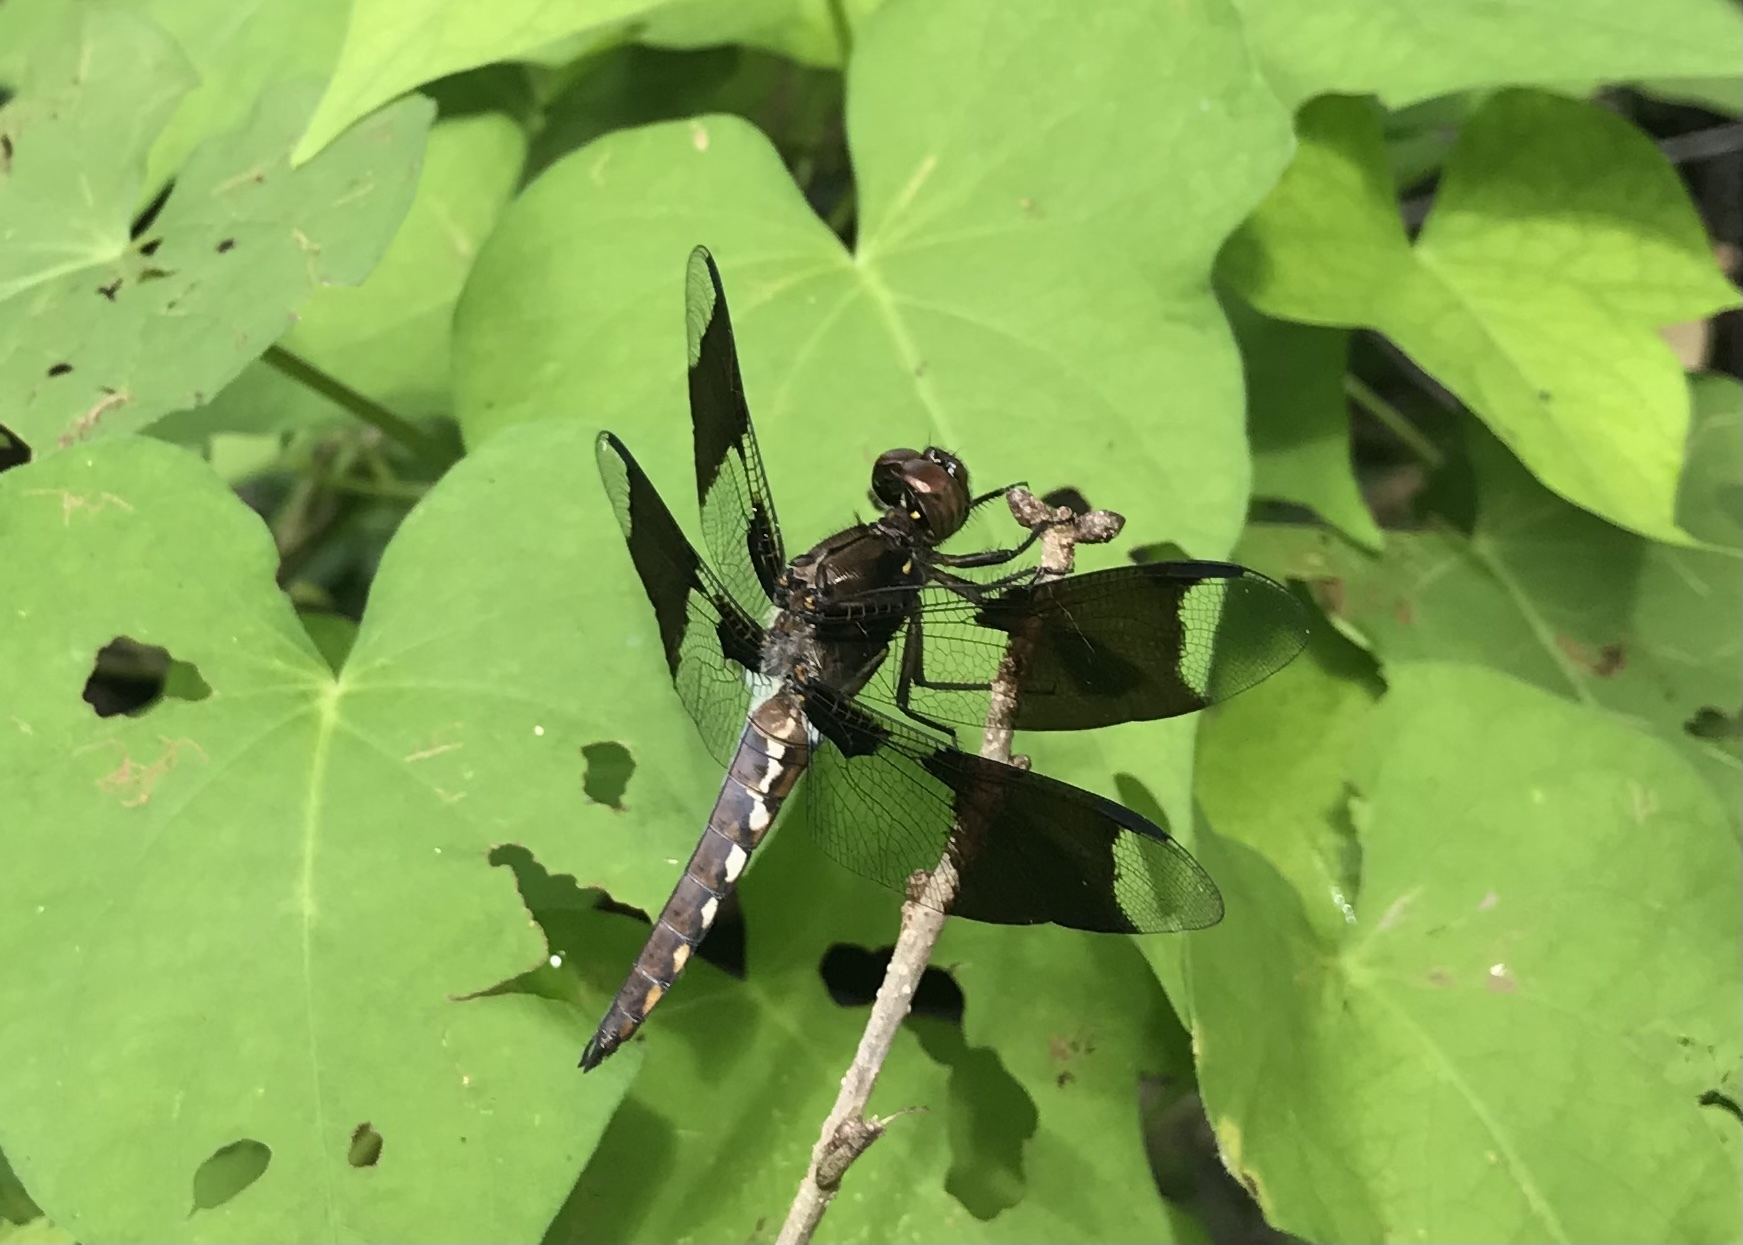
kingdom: Animalia
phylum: Arthropoda
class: Insecta
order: Odonata
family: Libellulidae
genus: Plathemis
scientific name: Plathemis lydia
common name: Common whitetail
